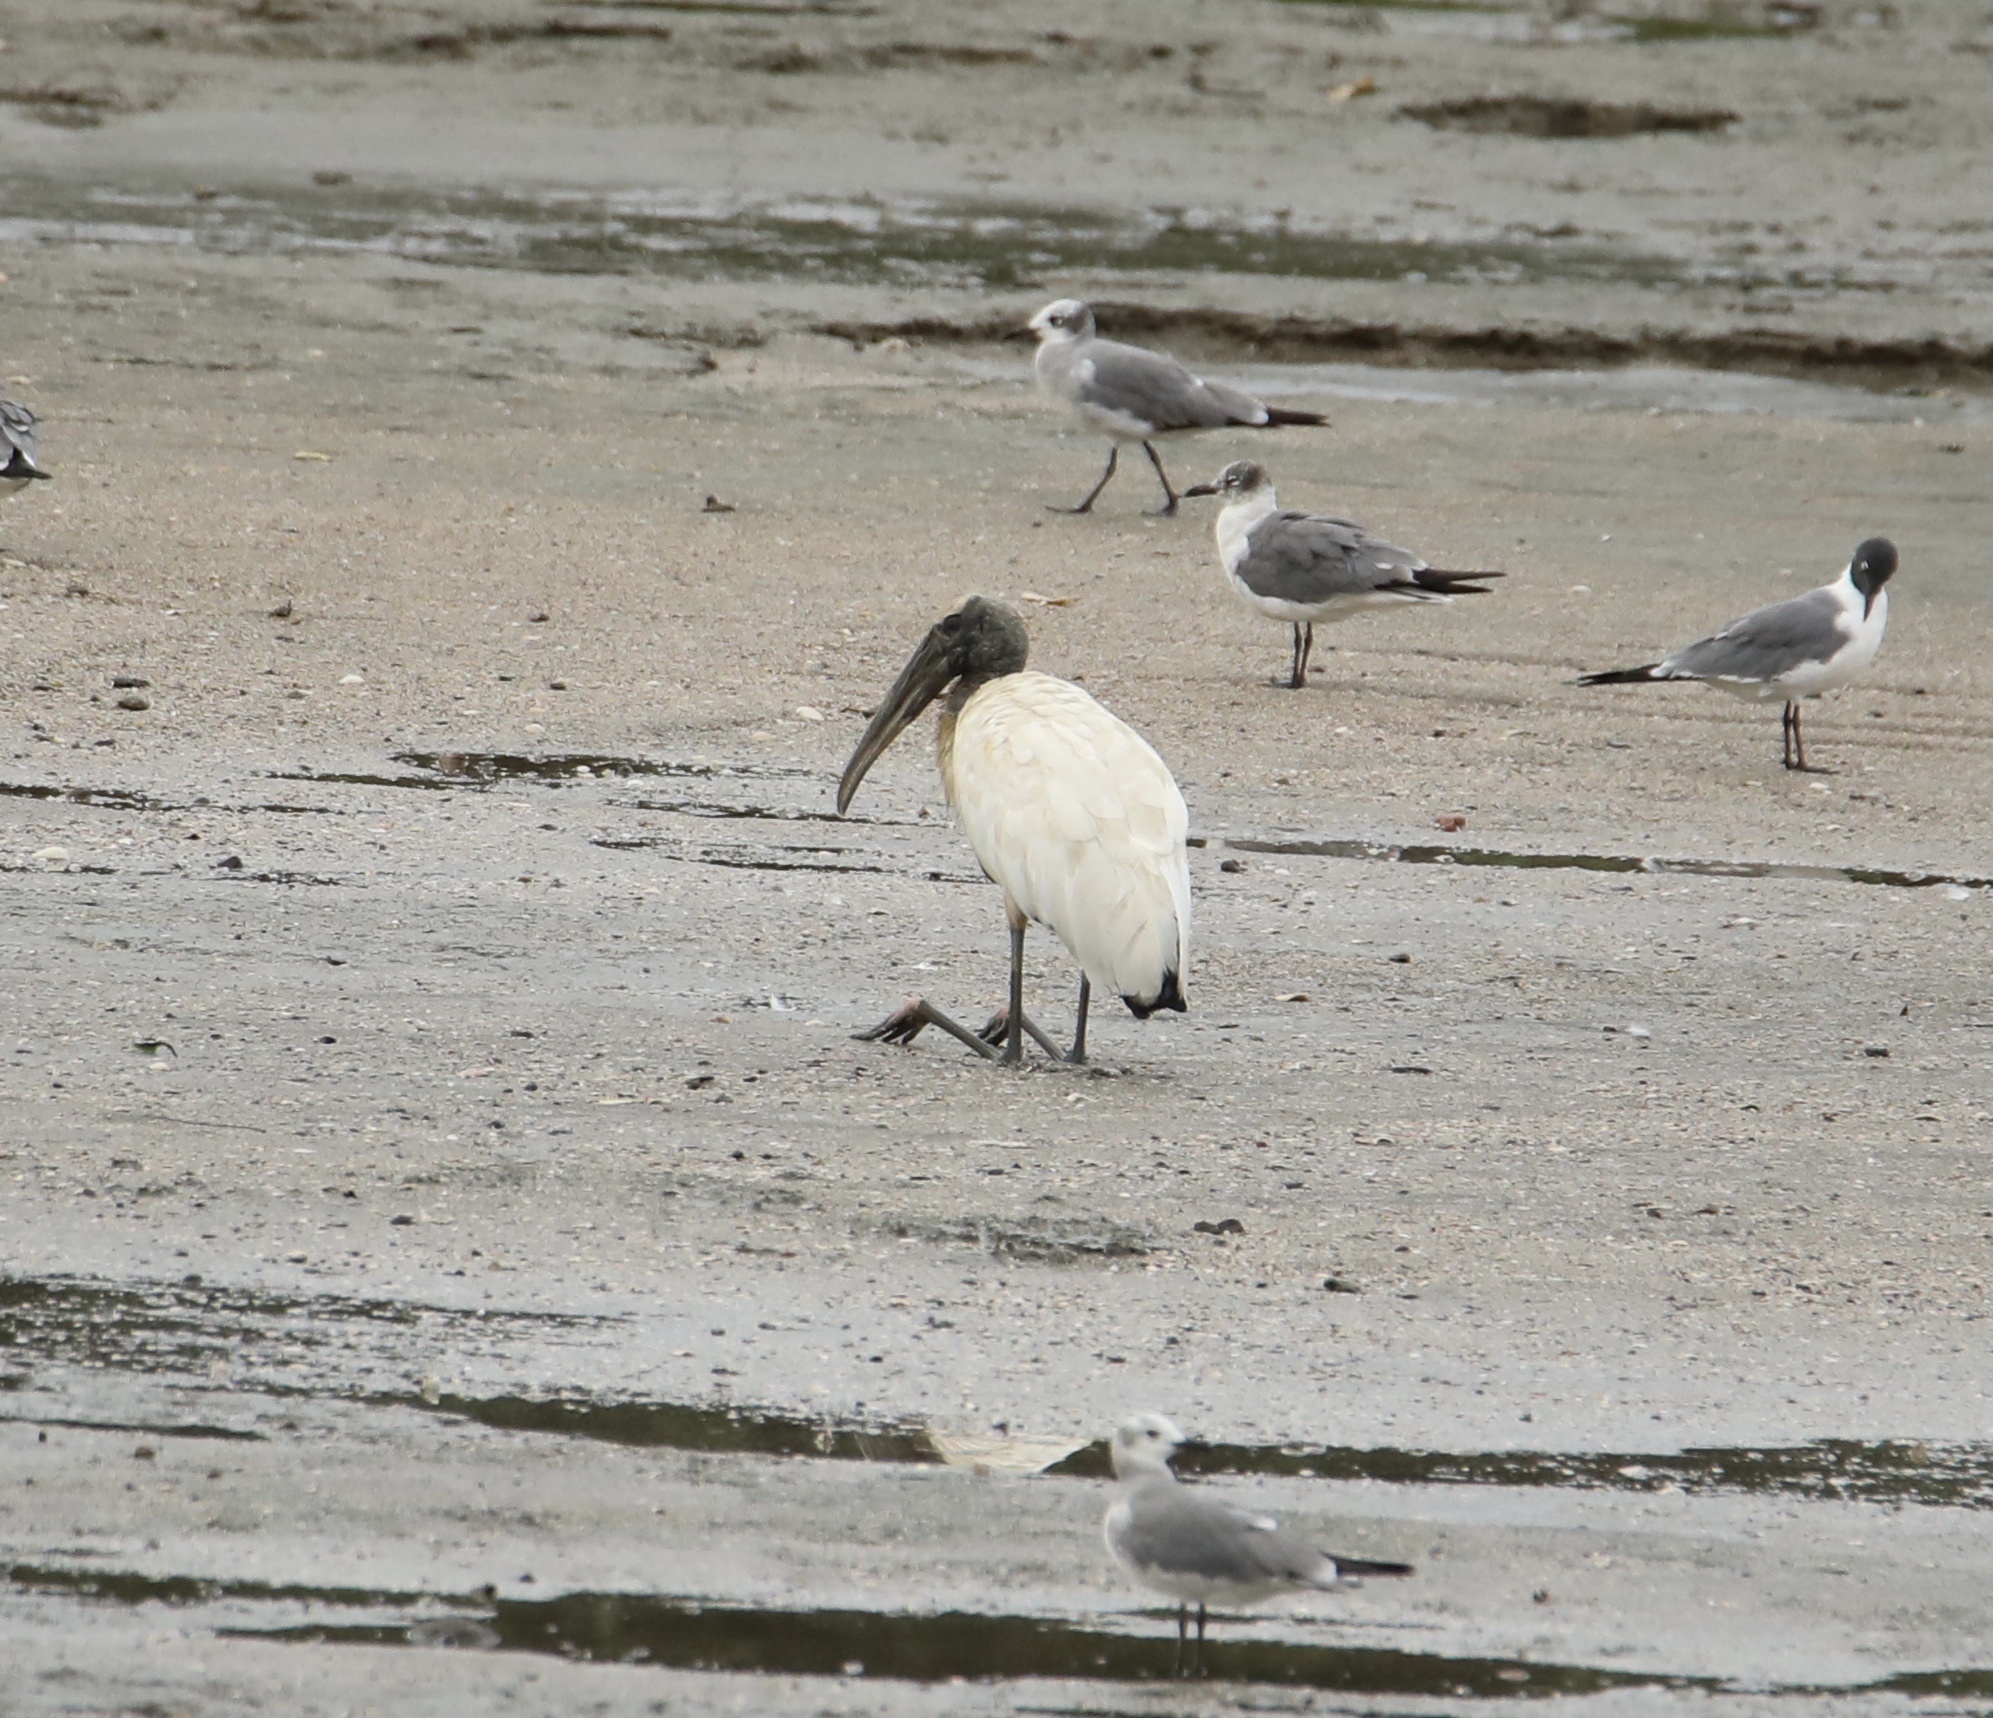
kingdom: Animalia
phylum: Chordata
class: Aves
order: Ciconiiformes
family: Ciconiidae
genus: Mycteria
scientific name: Mycteria americana
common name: Wood stork
